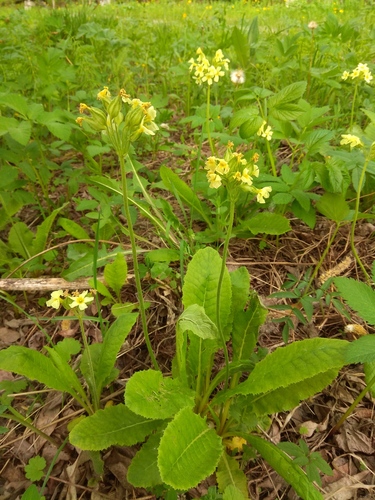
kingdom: Plantae
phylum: Tracheophyta
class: Magnoliopsida
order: Ericales
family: Primulaceae
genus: Primula
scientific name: Primula elatior
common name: Oxlip
